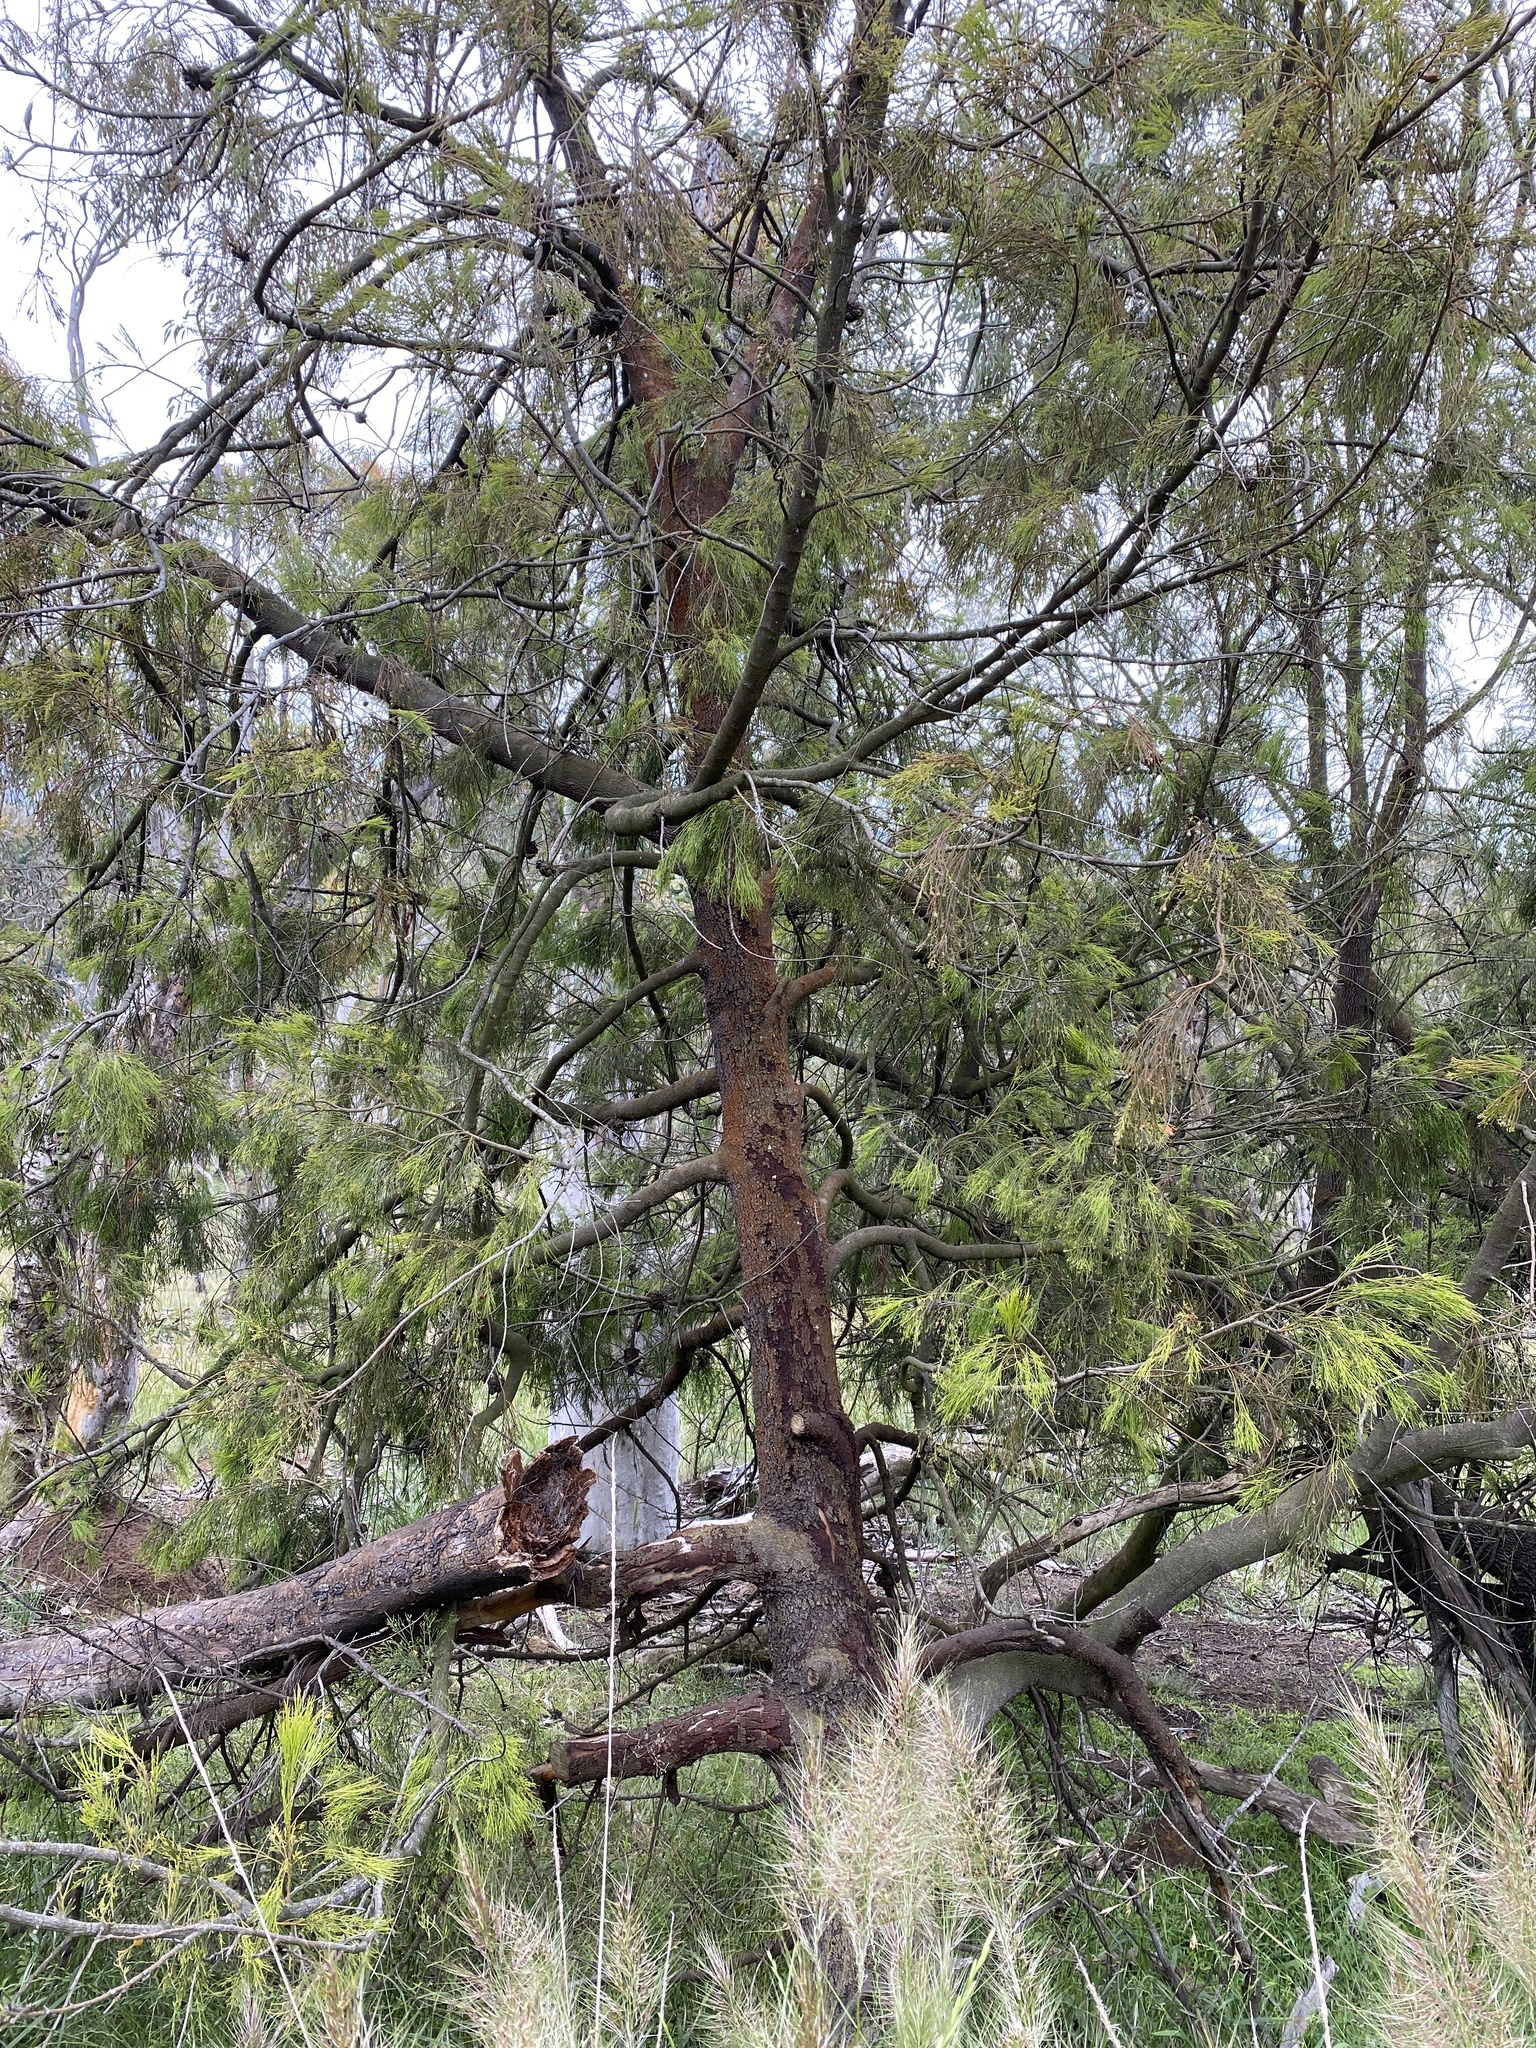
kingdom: Plantae
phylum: Tracheophyta
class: Magnoliopsida
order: Santalales
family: Santalaceae
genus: Exocarpos
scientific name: Exocarpos cupressiformis
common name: Cherry ballart
